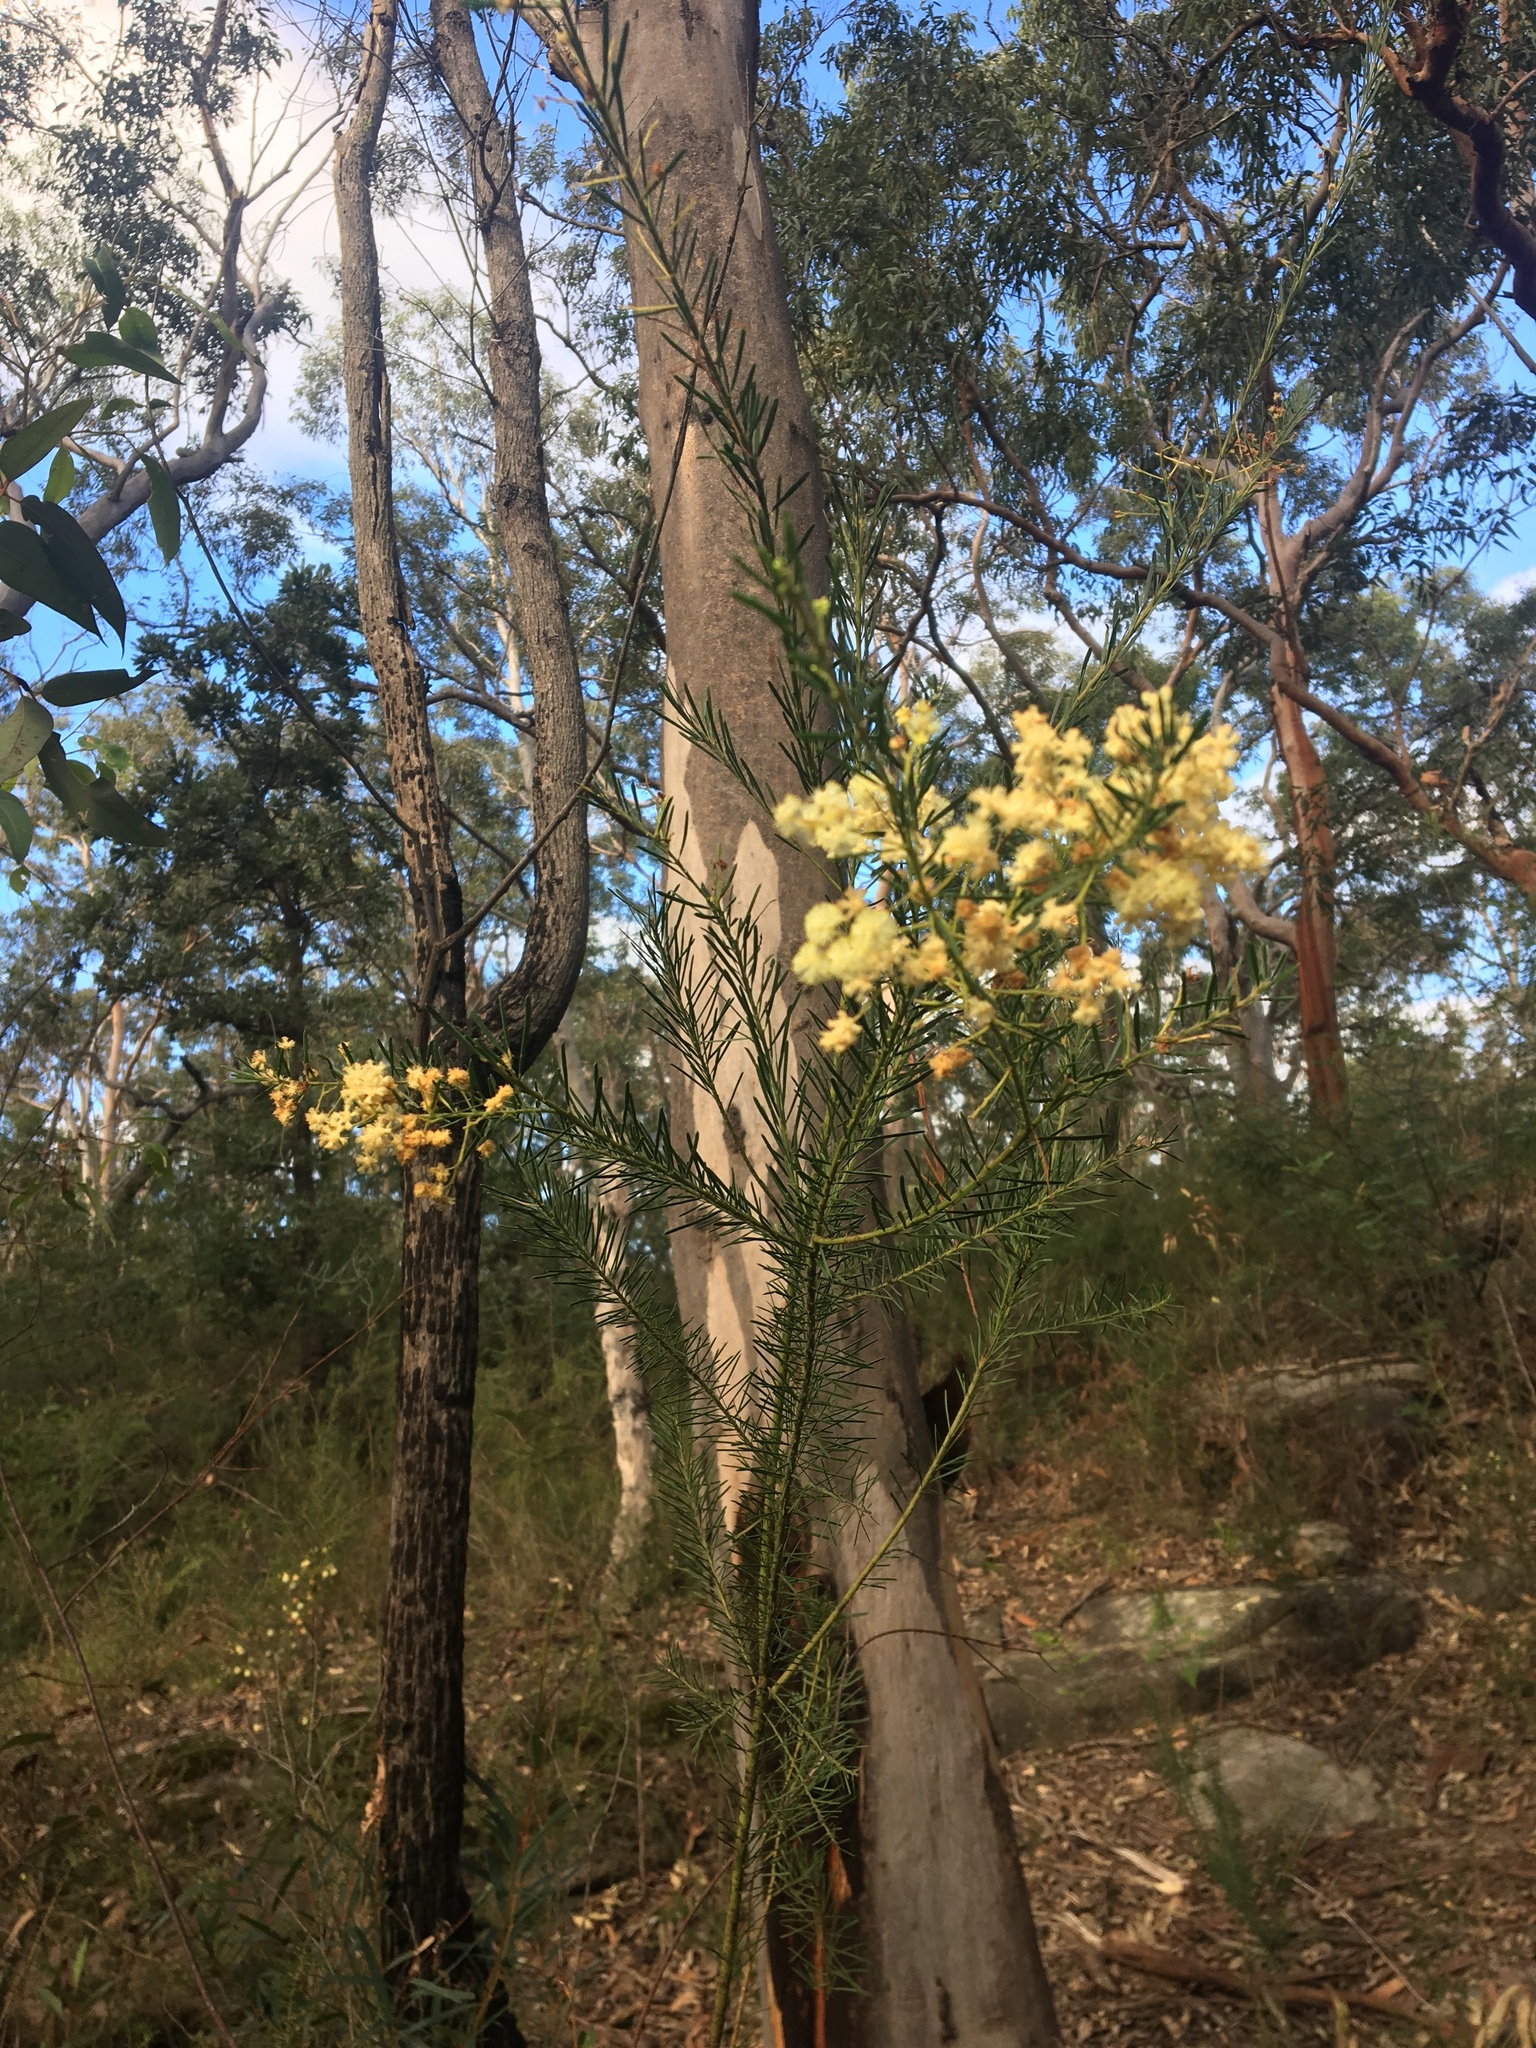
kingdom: Plantae
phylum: Tracheophyta
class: Magnoliopsida
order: Fabales
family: Fabaceae
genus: Acacia
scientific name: Acacia linifolia
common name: White wattle
